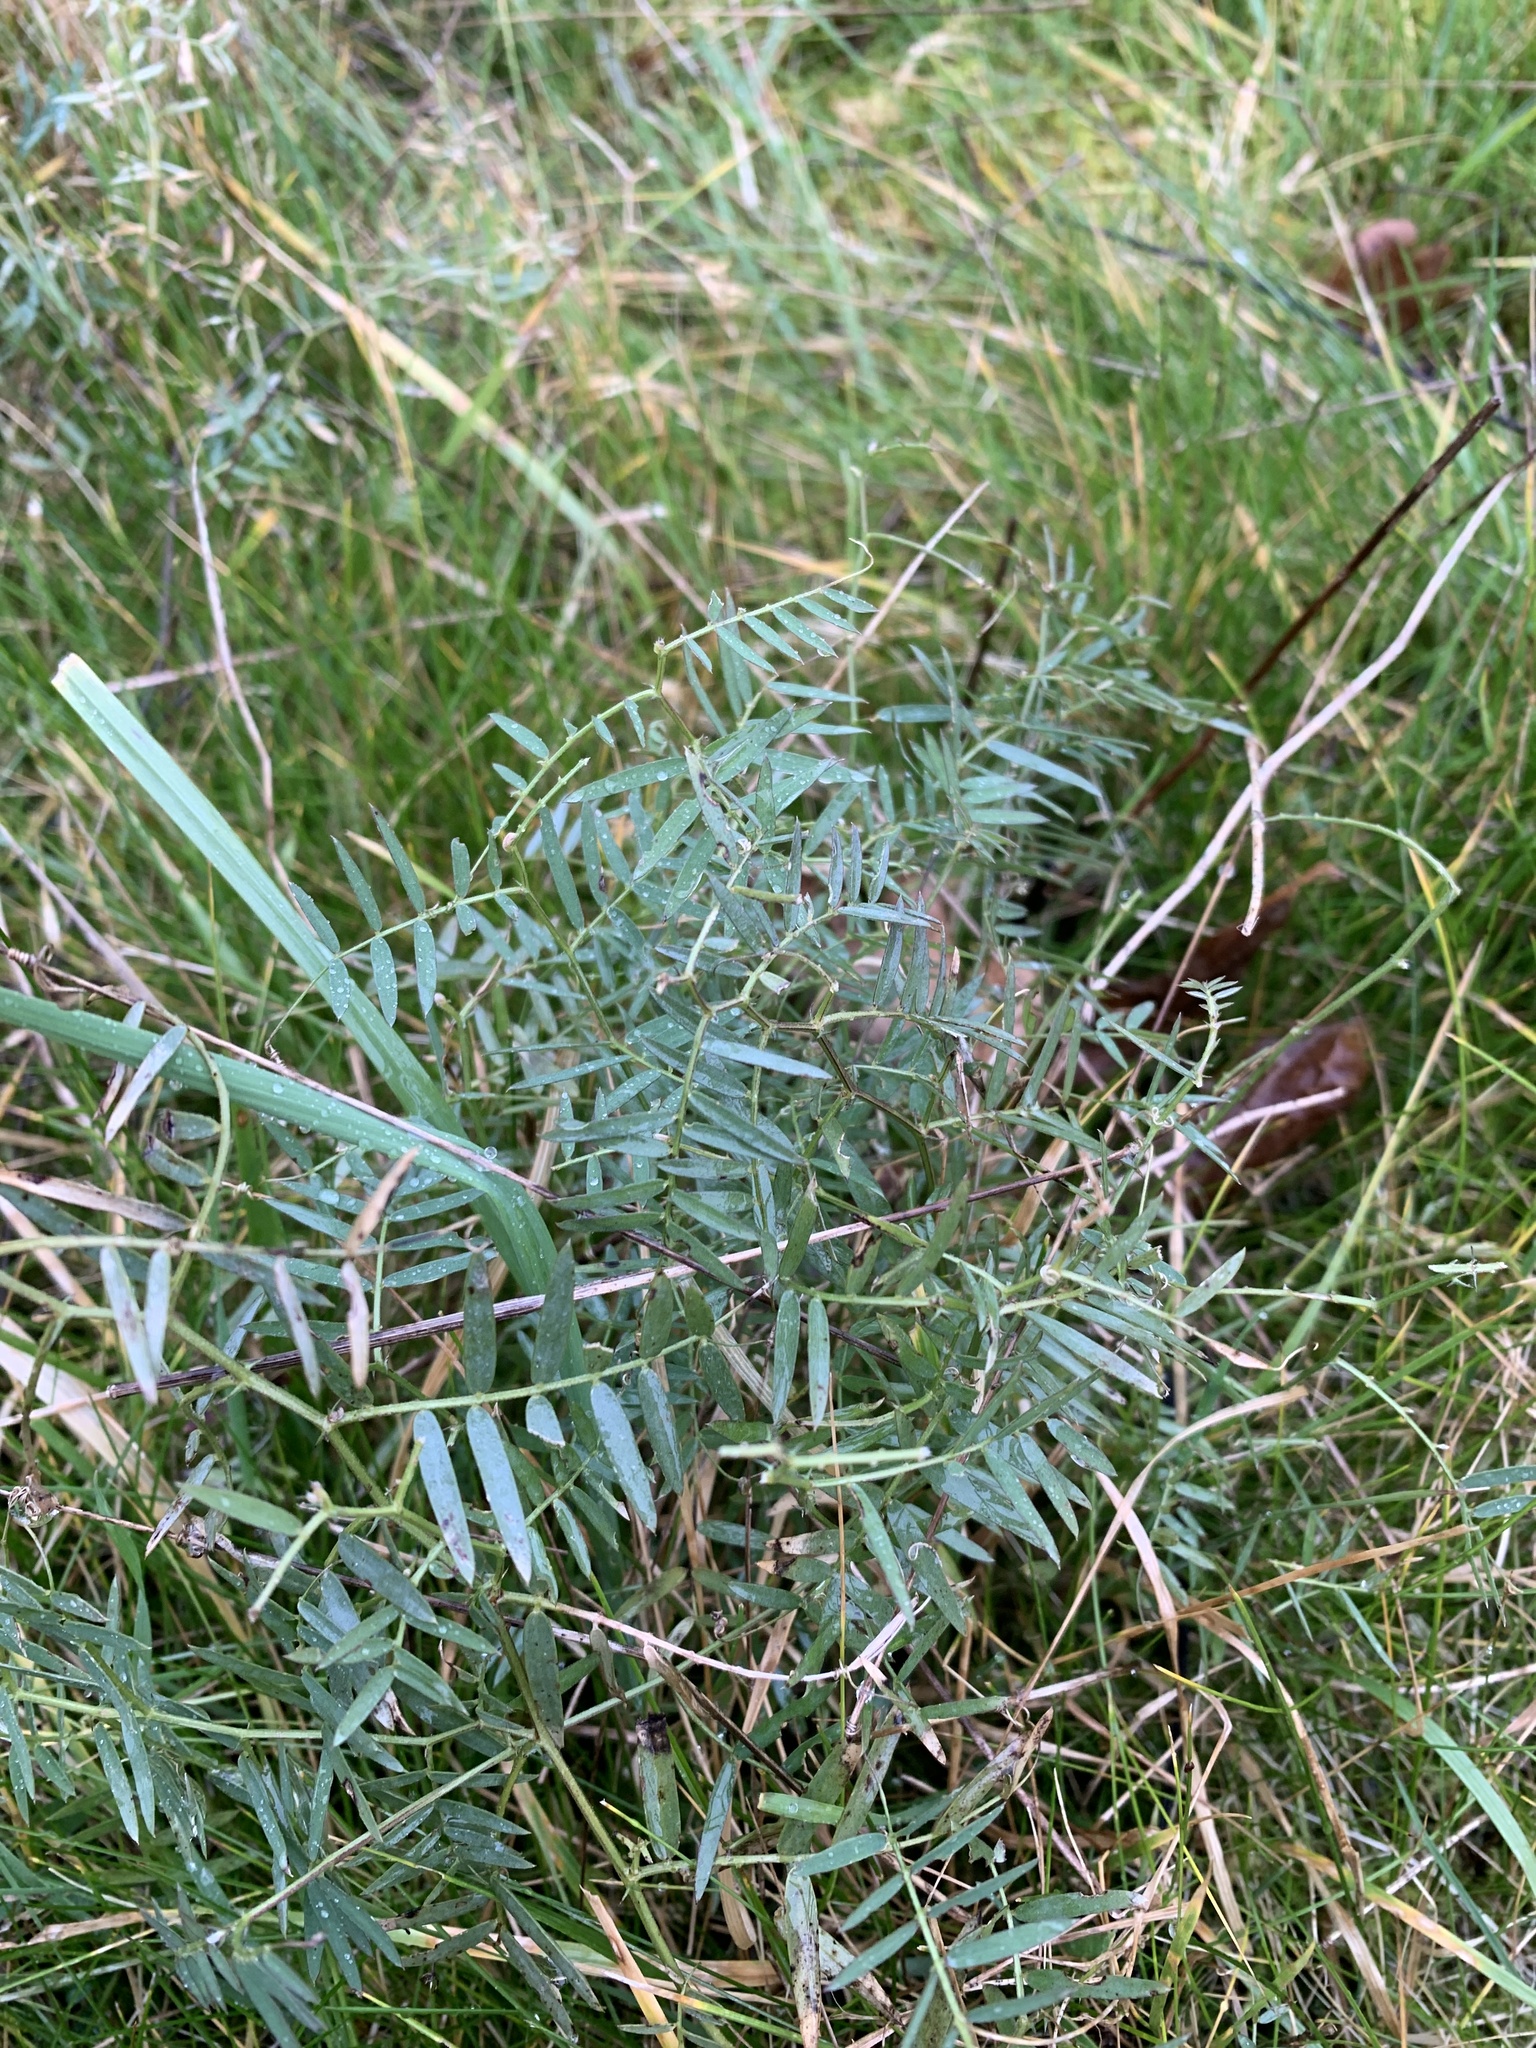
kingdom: Plantae
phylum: Tracheophyta
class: Magnoliopsida
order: Fabales
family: Fabaceae
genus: Vicia
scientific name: Vicia cracca
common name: Bird vetch
